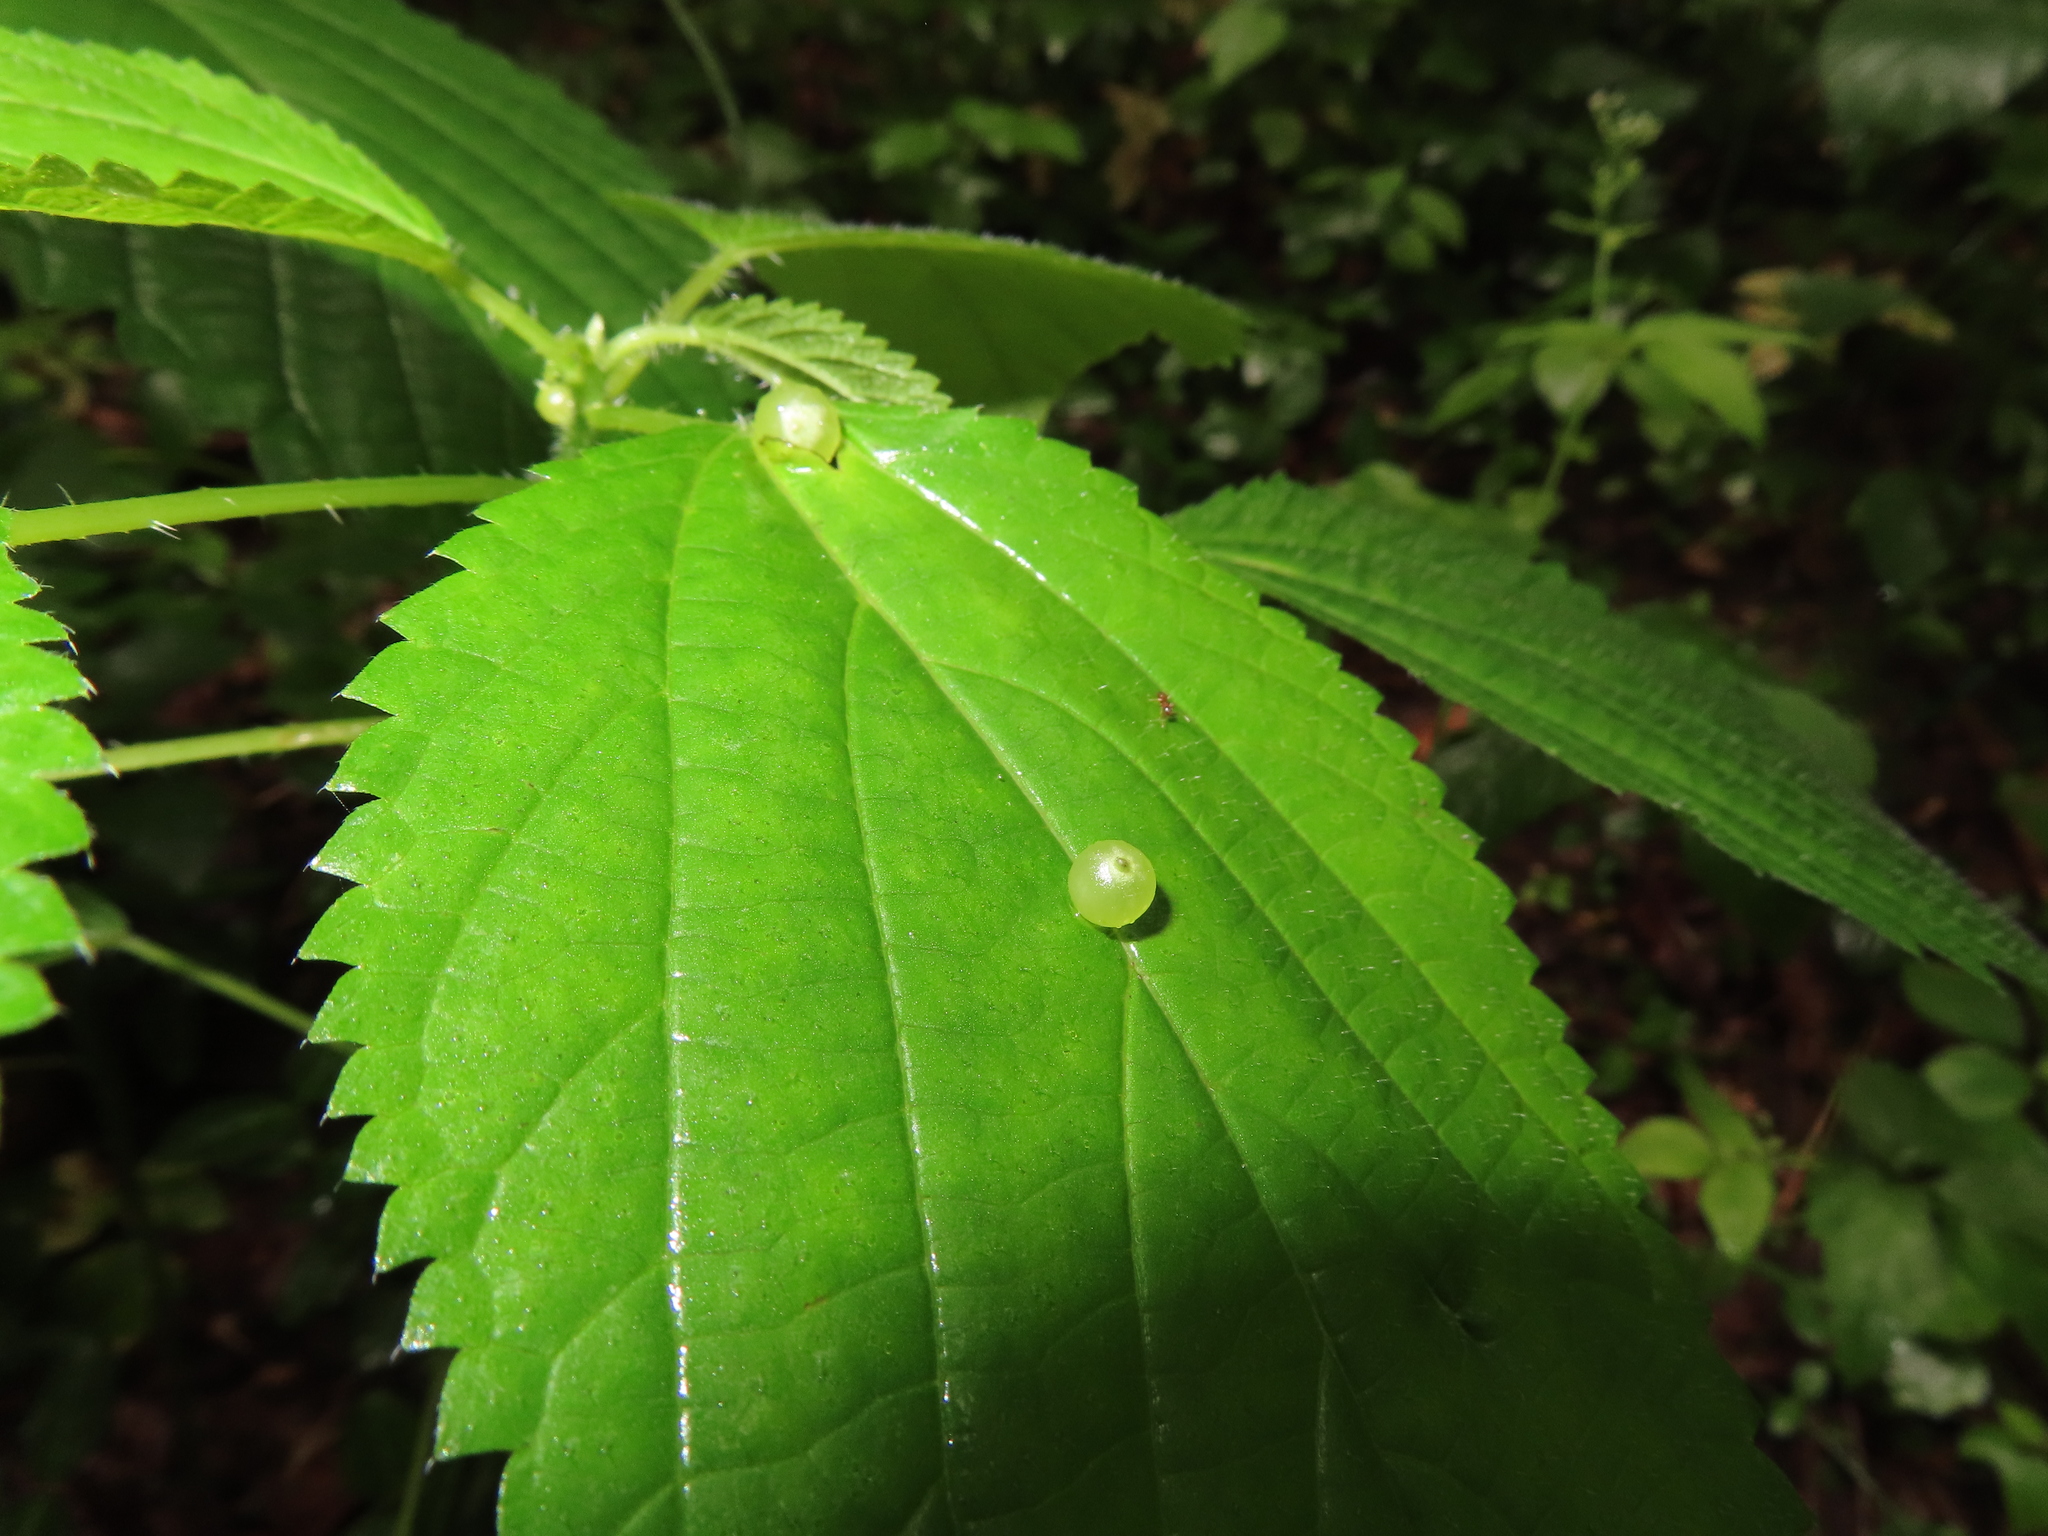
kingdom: Animalia
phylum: Arthropoda
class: Insecta
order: Diptera
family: Cecidomyiidae
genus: Dasineura
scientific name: Dasineura investita
